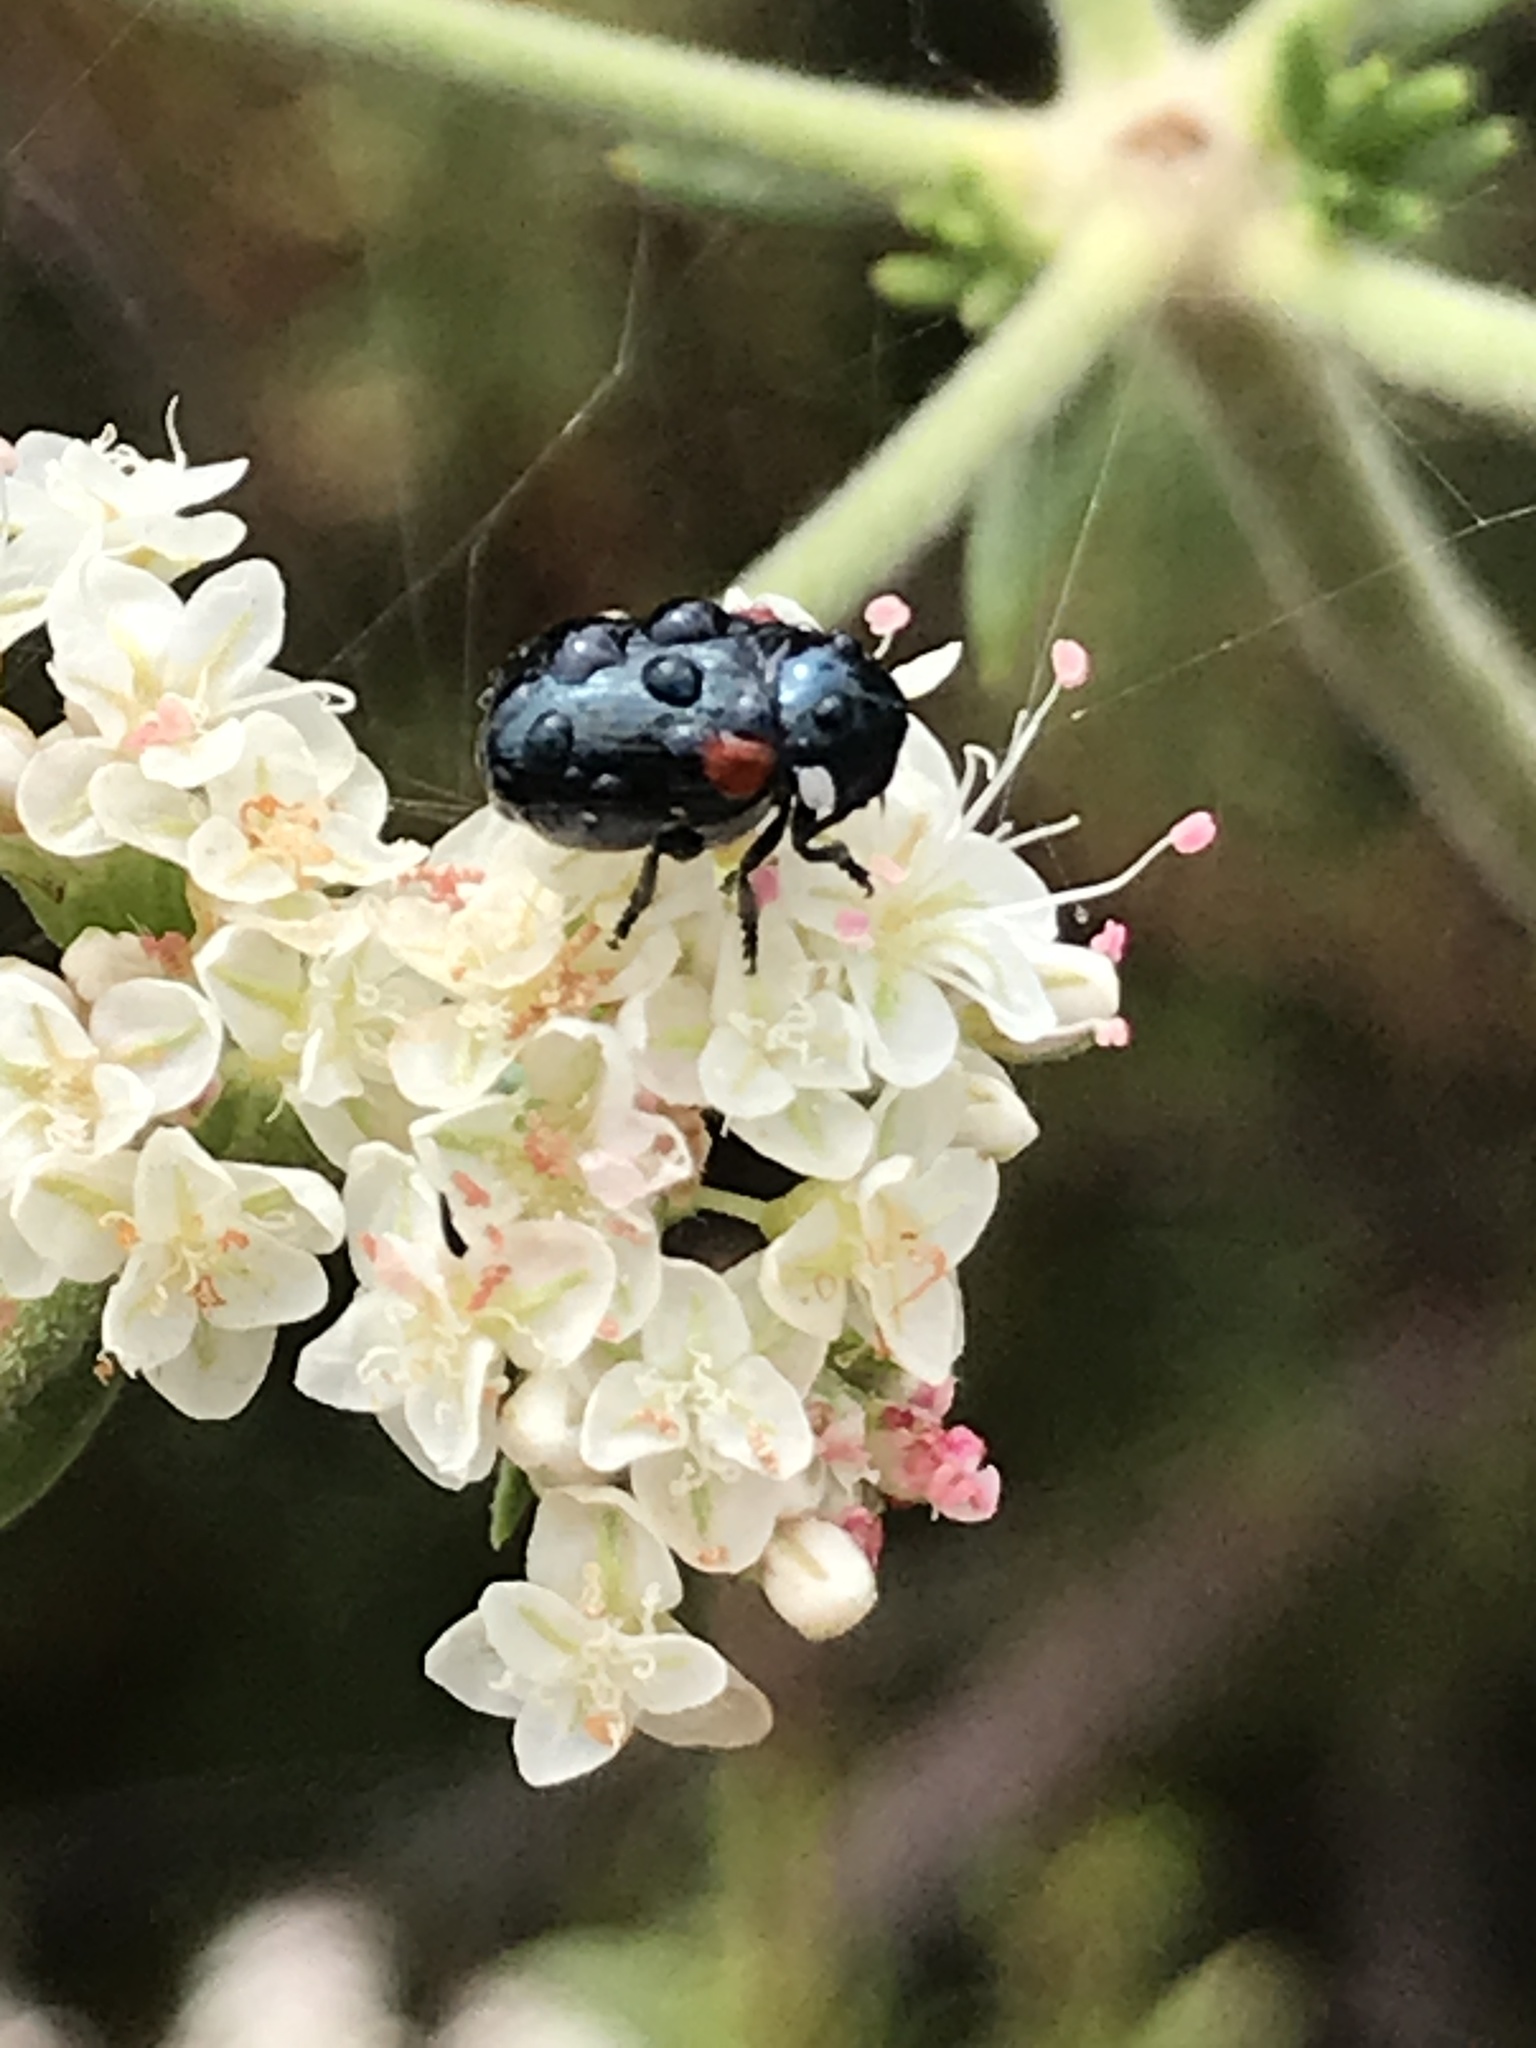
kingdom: Animalia
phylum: Arthropoda
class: Insecta
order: Coleoptera
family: Chrysomelidae
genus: Saxinis
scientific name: Saxinis saucia
